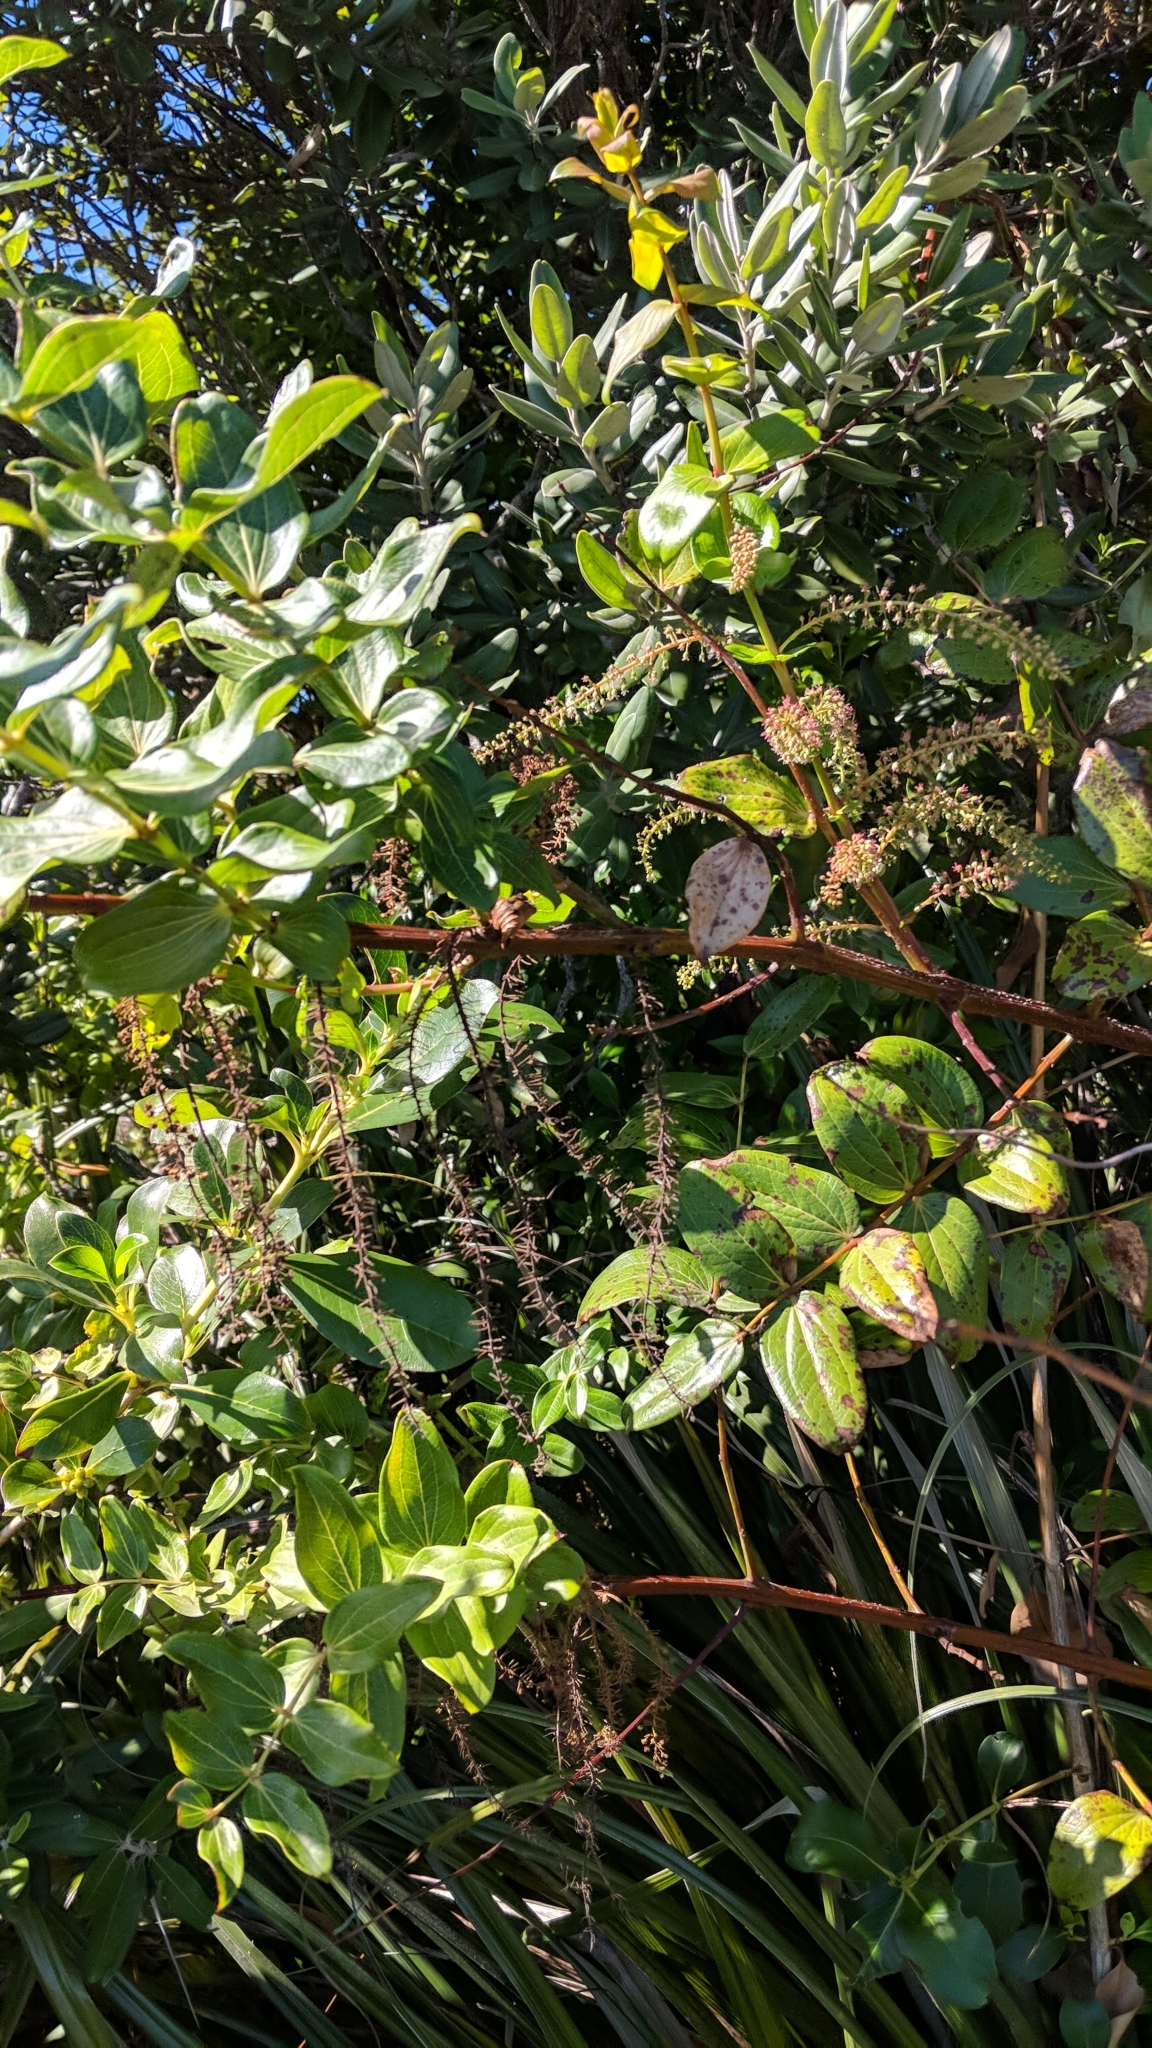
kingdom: Plantae
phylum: Tracheophyta
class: Magnoliopsida
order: Cucurbitales
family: Coriariaceae
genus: Coriaria
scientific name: Coriaria arborea
